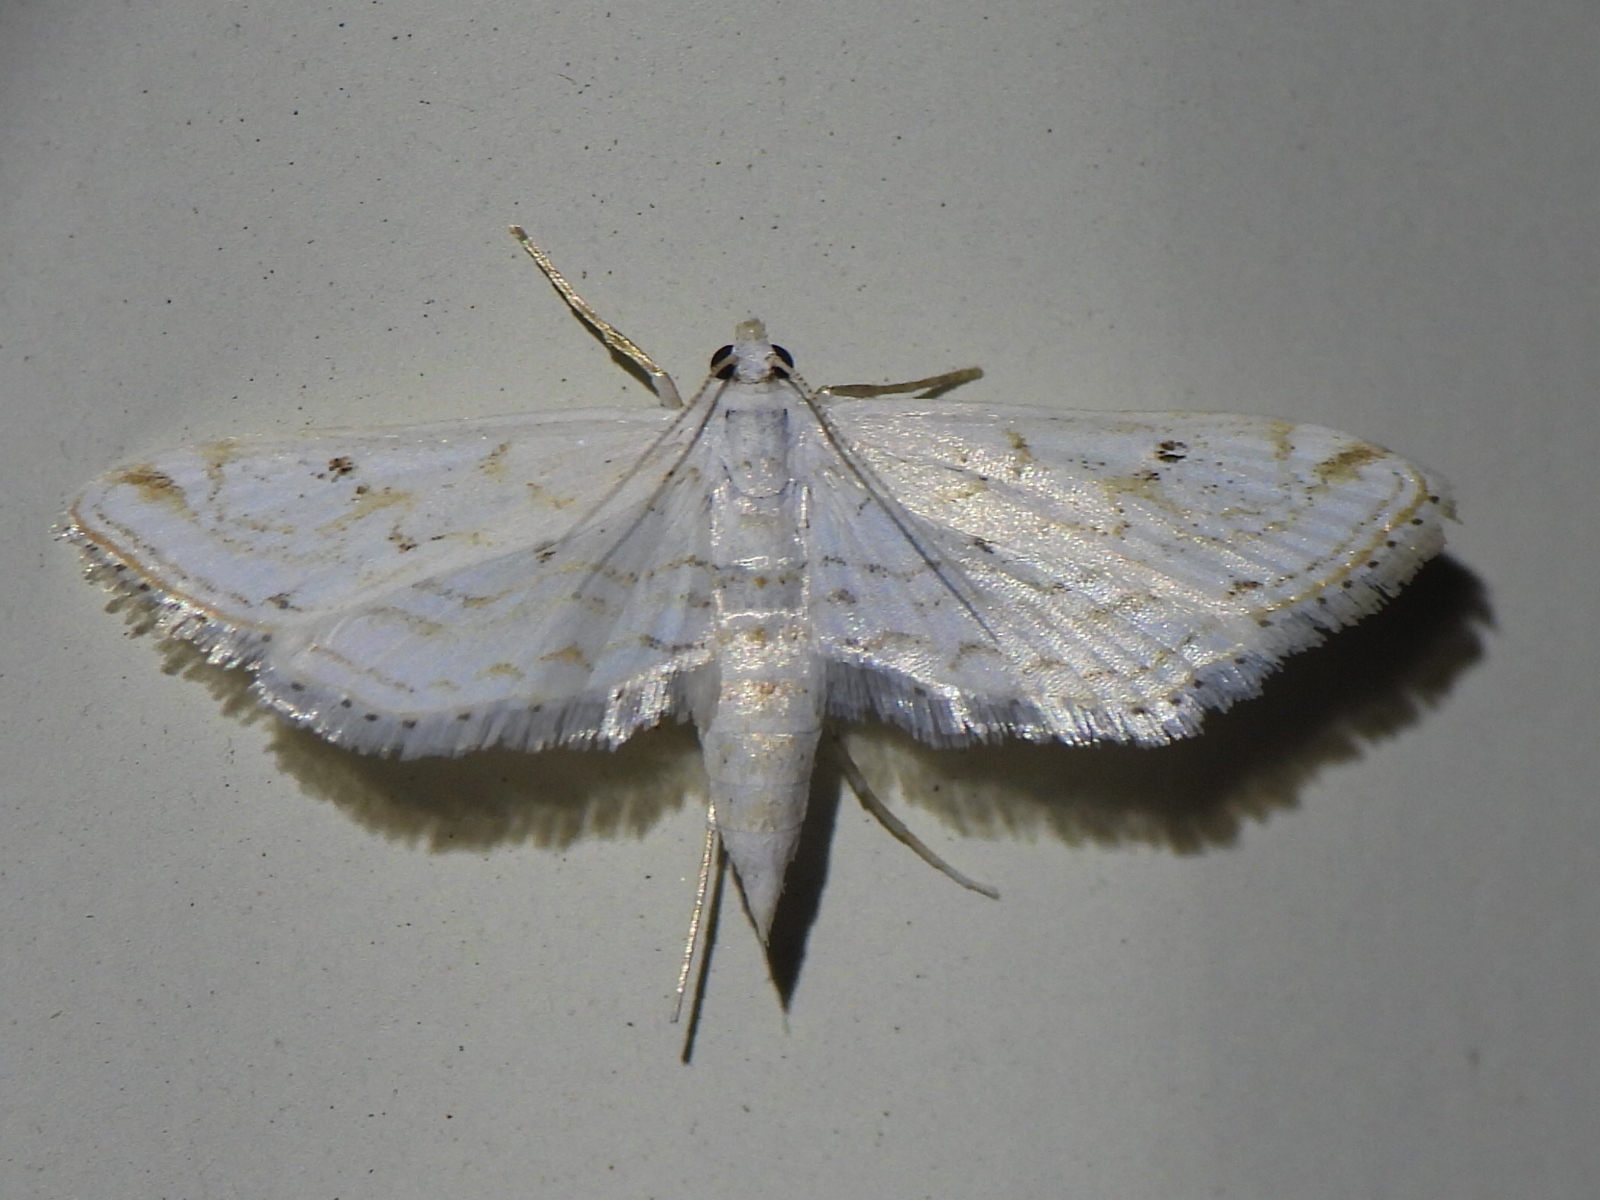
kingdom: Animalia
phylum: Arthropoda
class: Insecta
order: Lepidoptera
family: Crambidae
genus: Parapoynx
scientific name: Parapoynx allionealis
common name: Bladderwort casemaker
